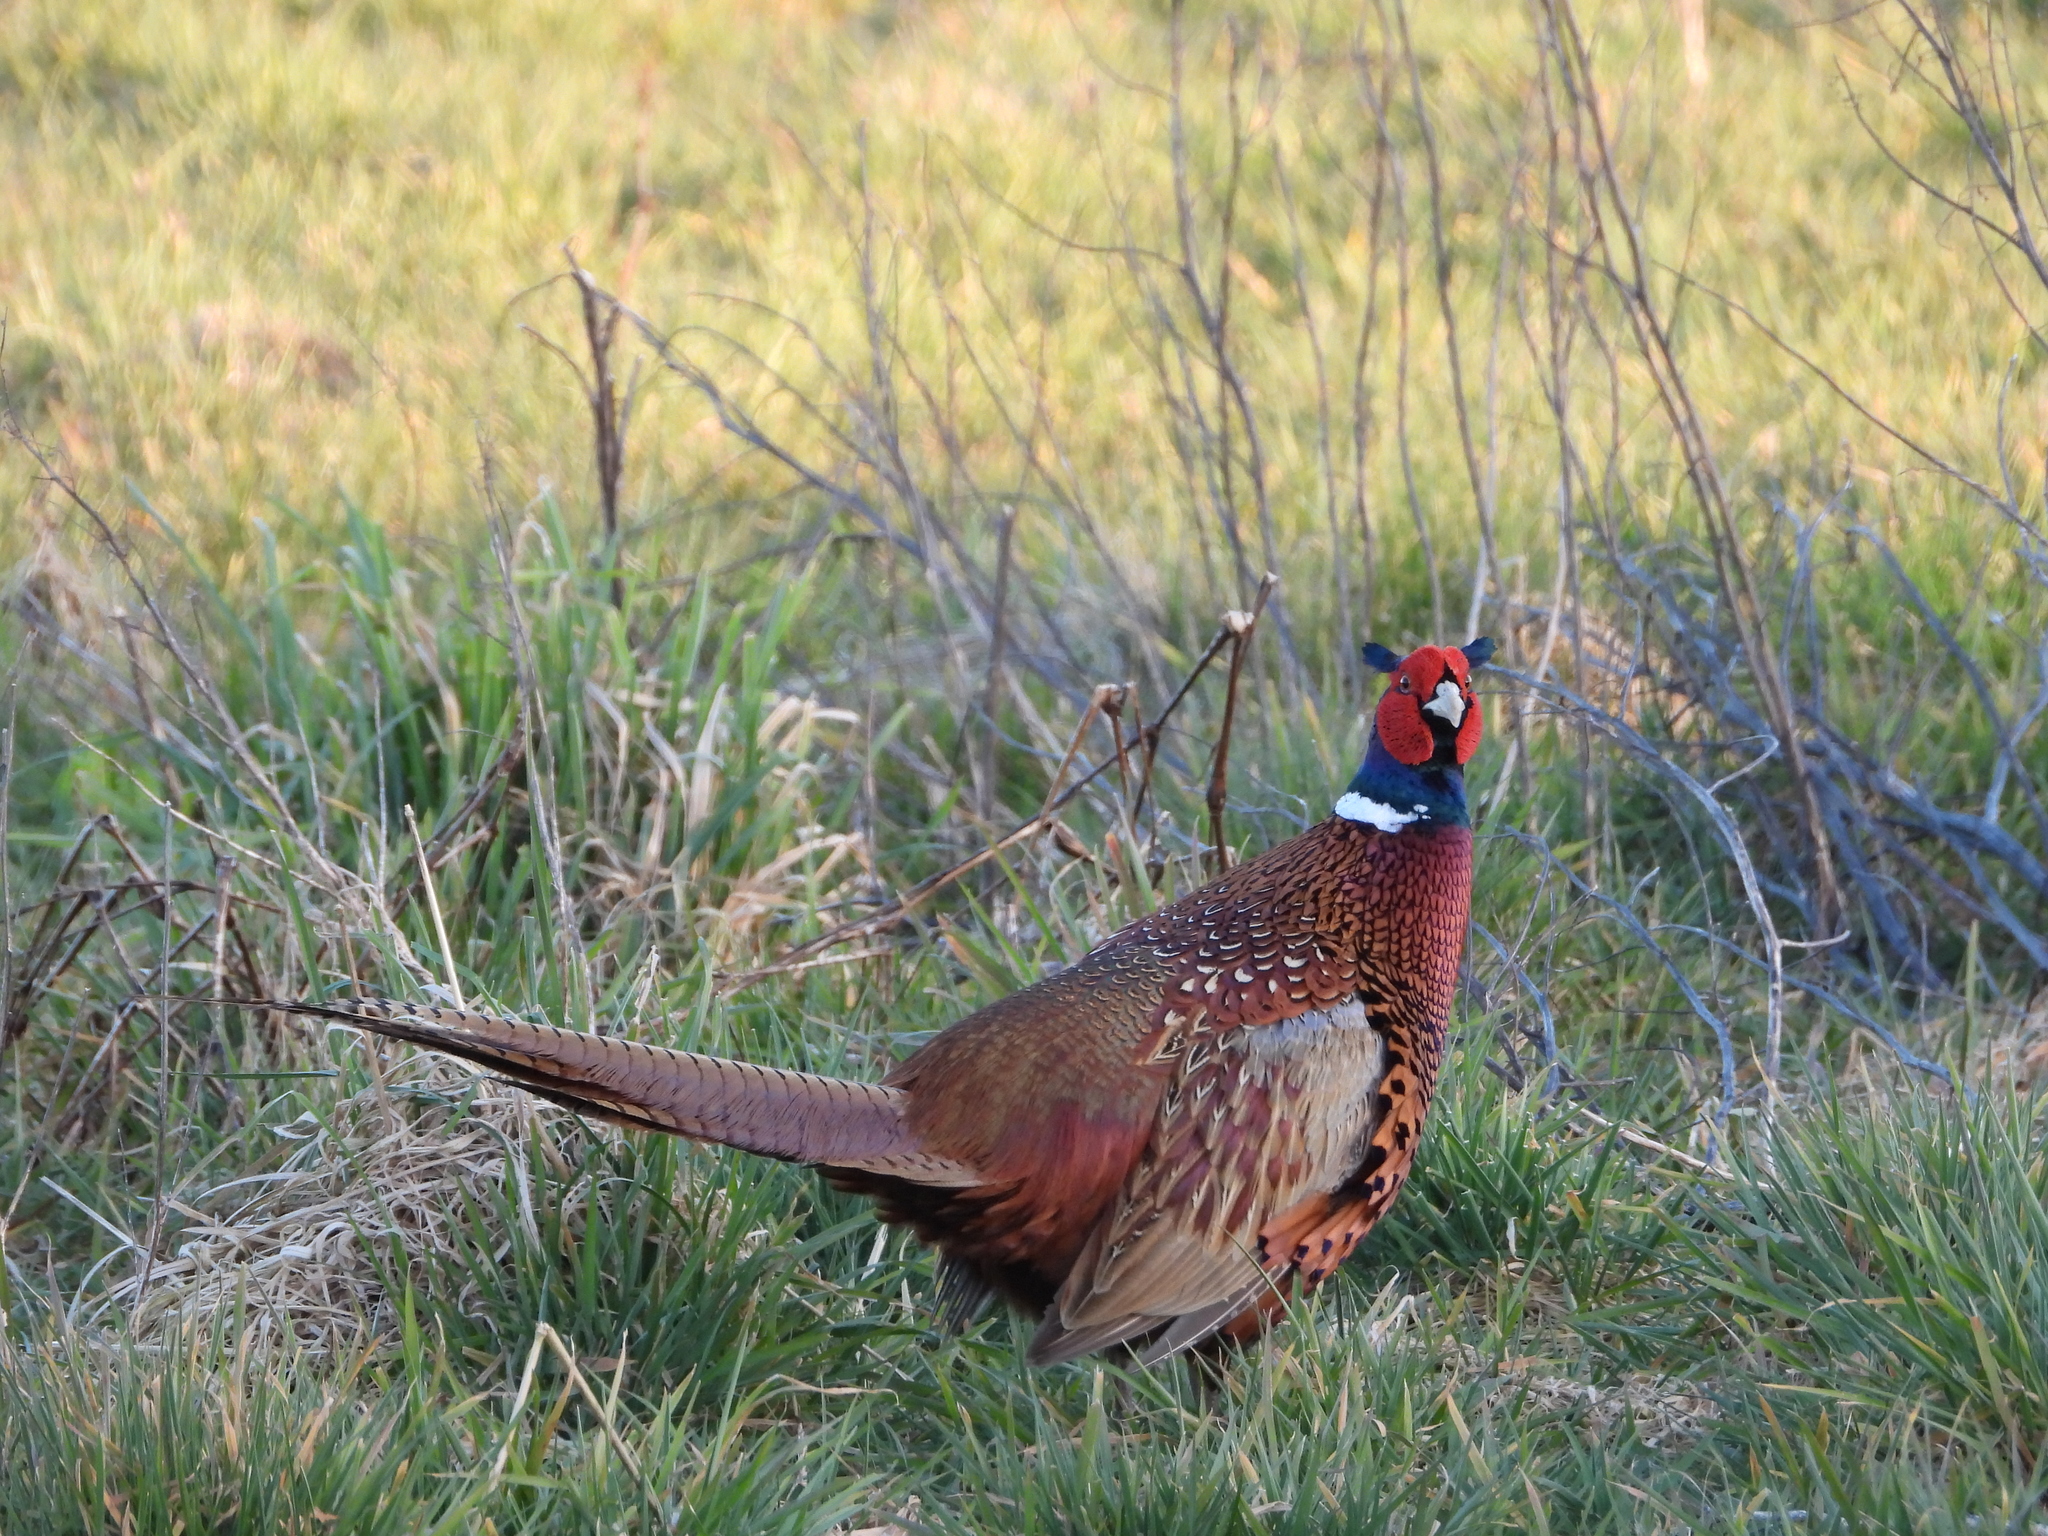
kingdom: Animalia
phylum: Chordata
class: Aves
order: Galliformes
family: Phasianidae
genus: Phasianus
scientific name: Phasianus colchicus
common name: Common pheasant
